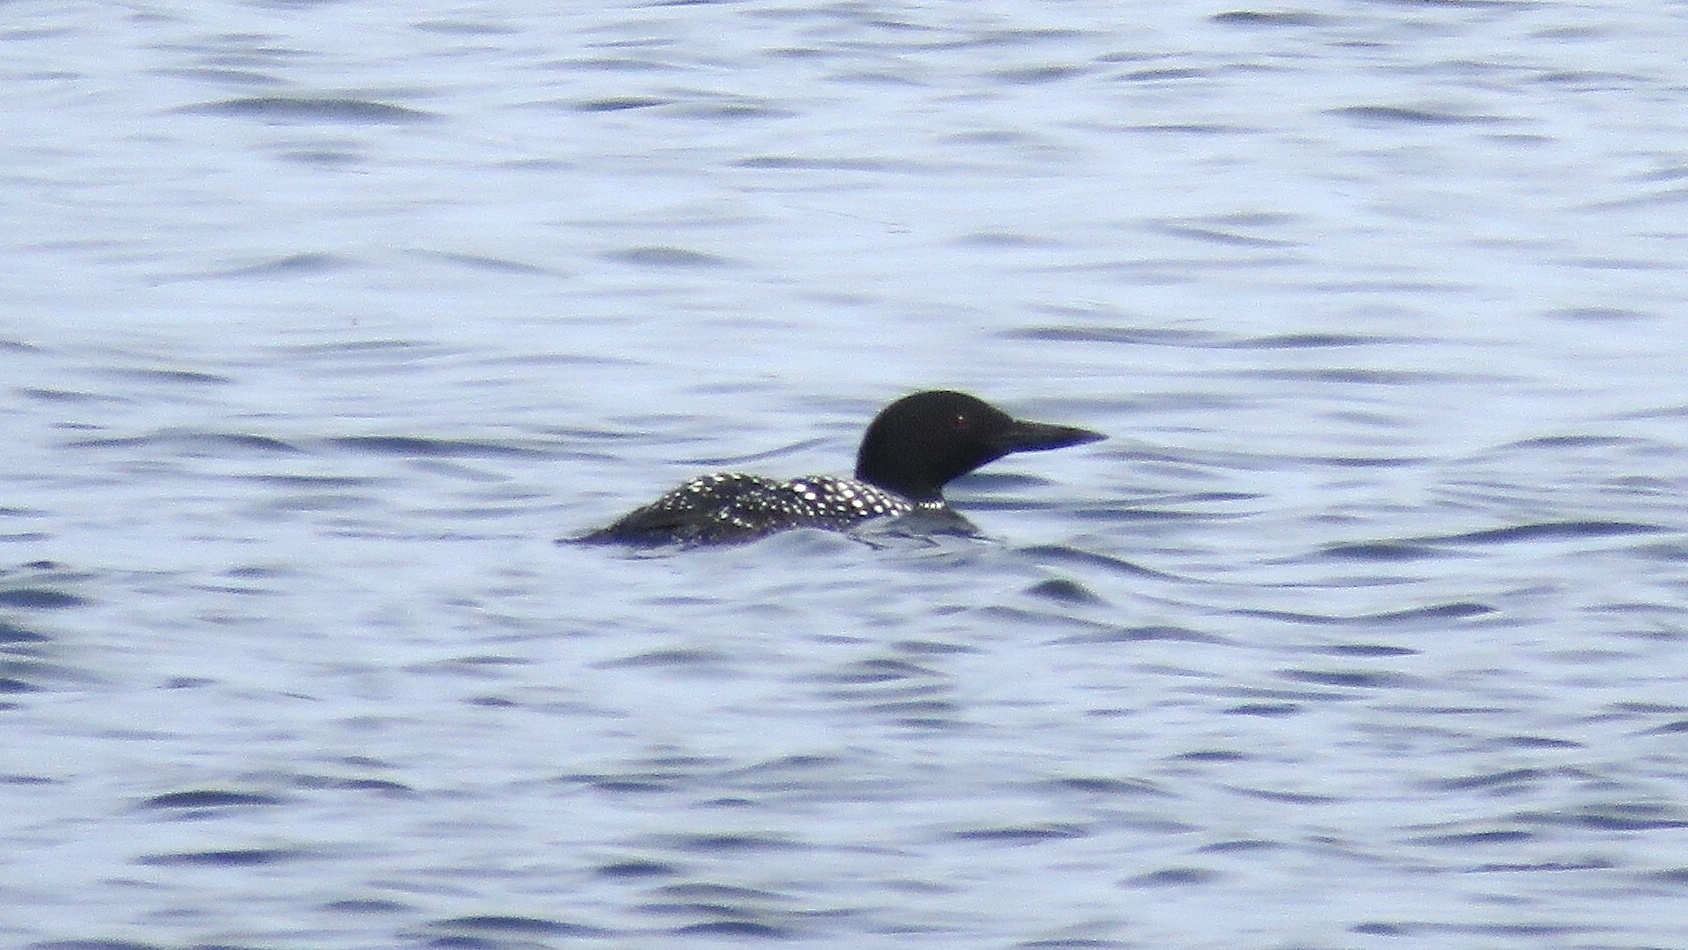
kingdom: Animalia
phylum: Chordata
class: Aves
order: Gaviiformes
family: Gaviidae
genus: Gavia
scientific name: Gavia immer
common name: Common loon
